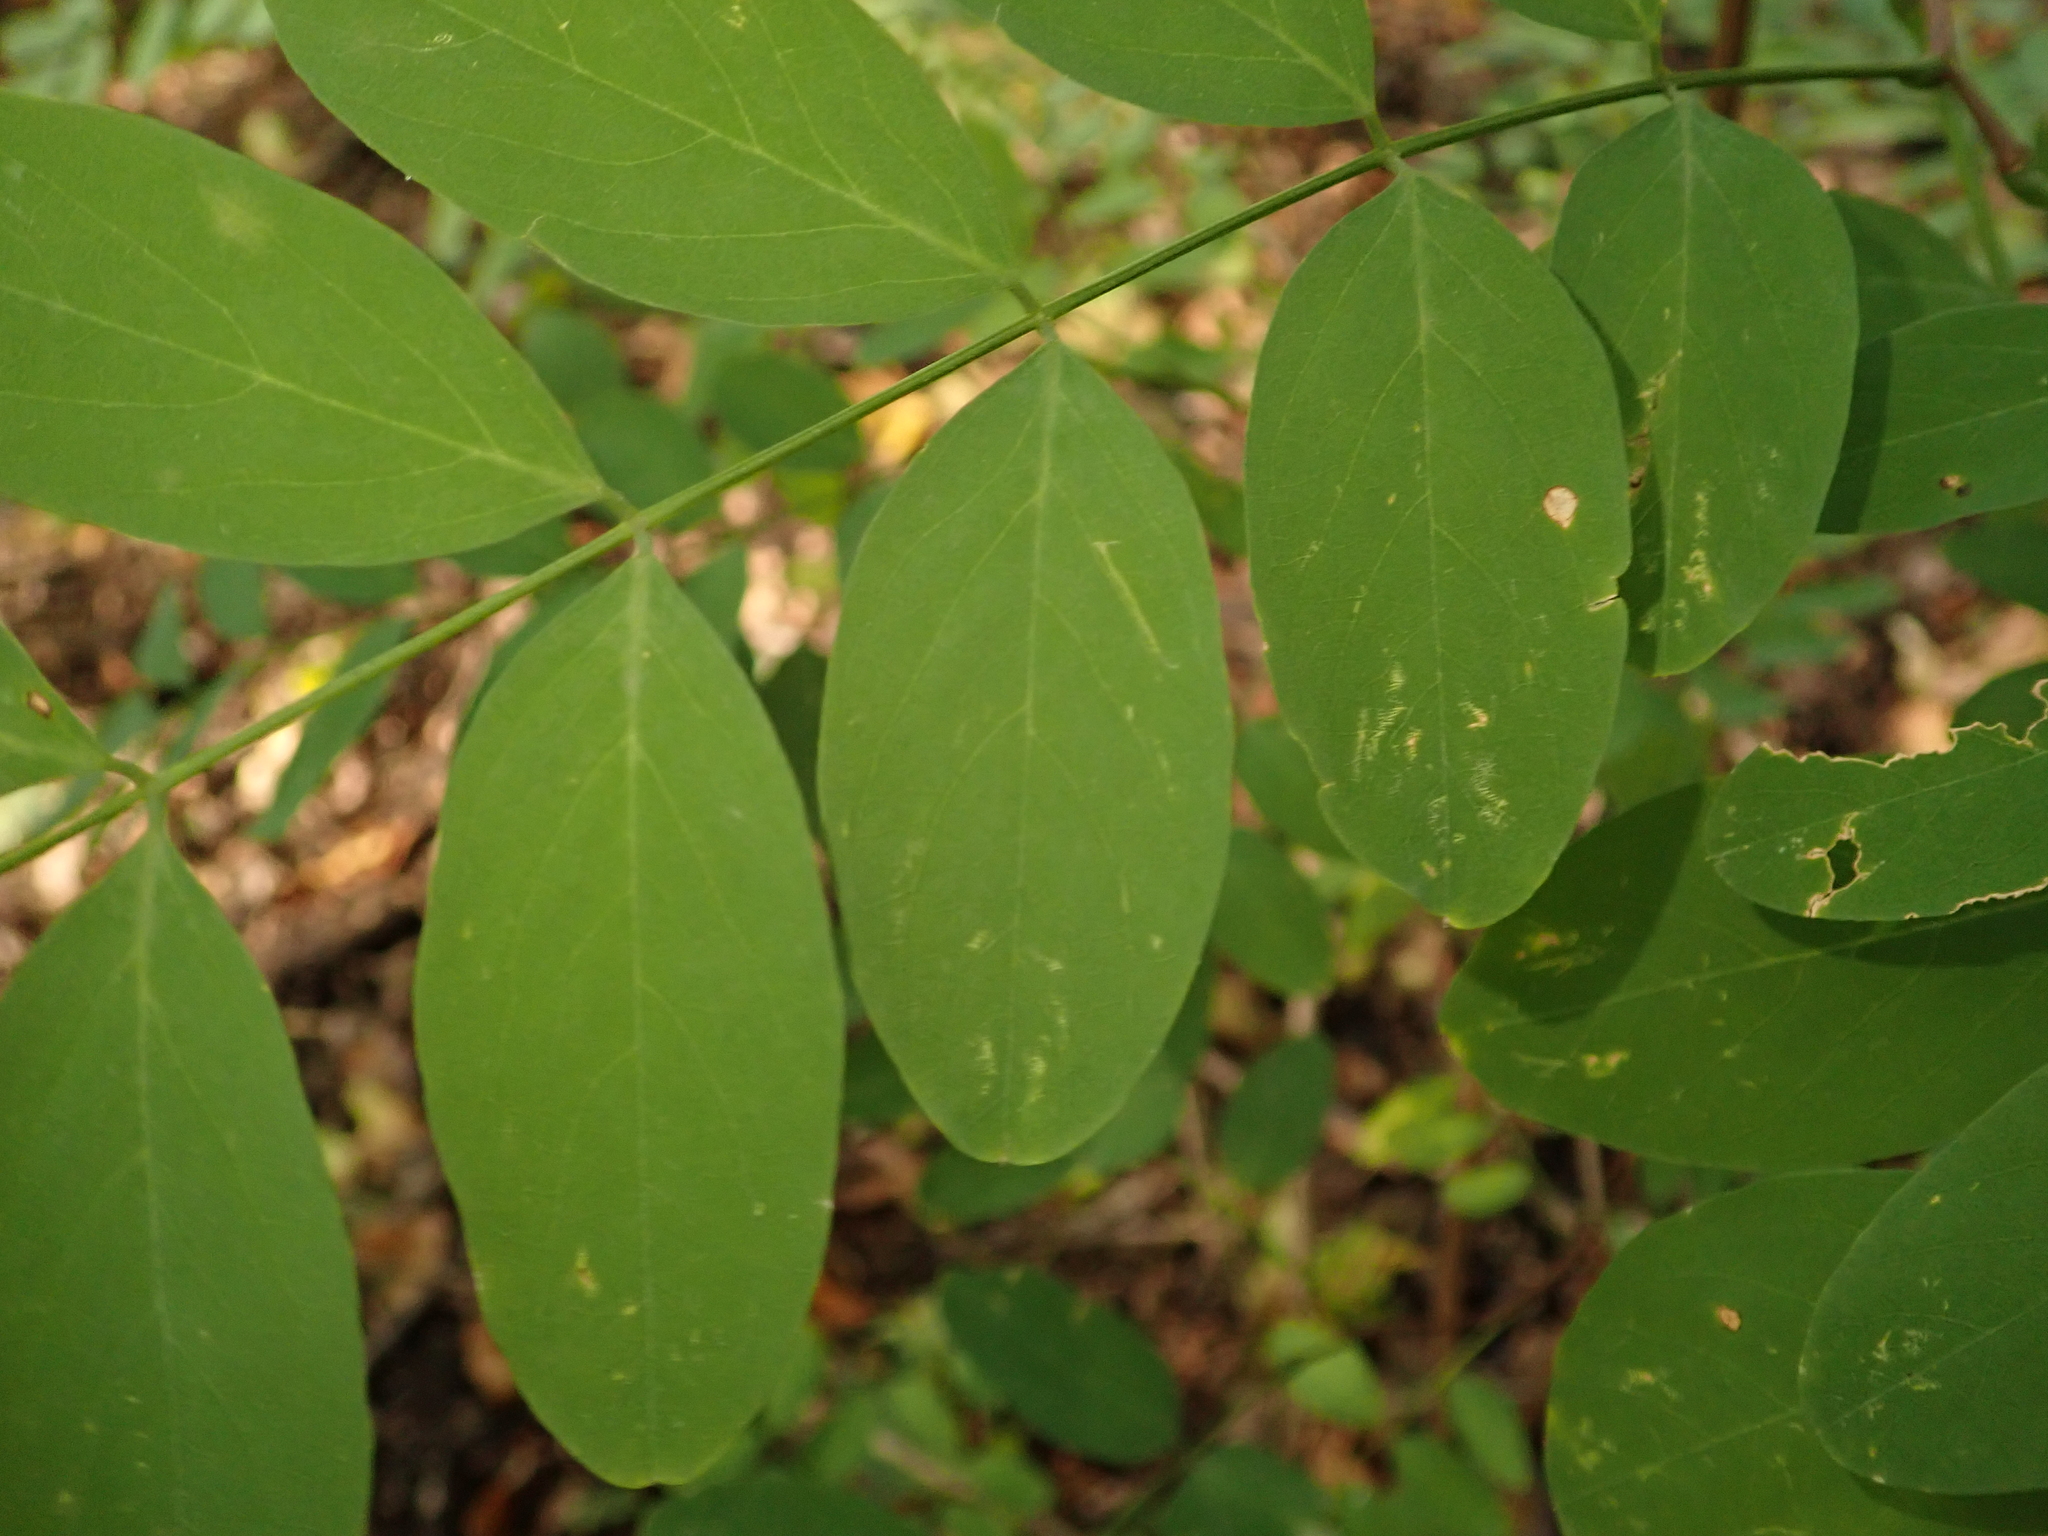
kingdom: Plantae
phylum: Tracheophyta
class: Magnoliopsida
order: Fabales
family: Fabaceae
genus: Robinia
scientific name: Robinia pseudoacacia
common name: Black locust
